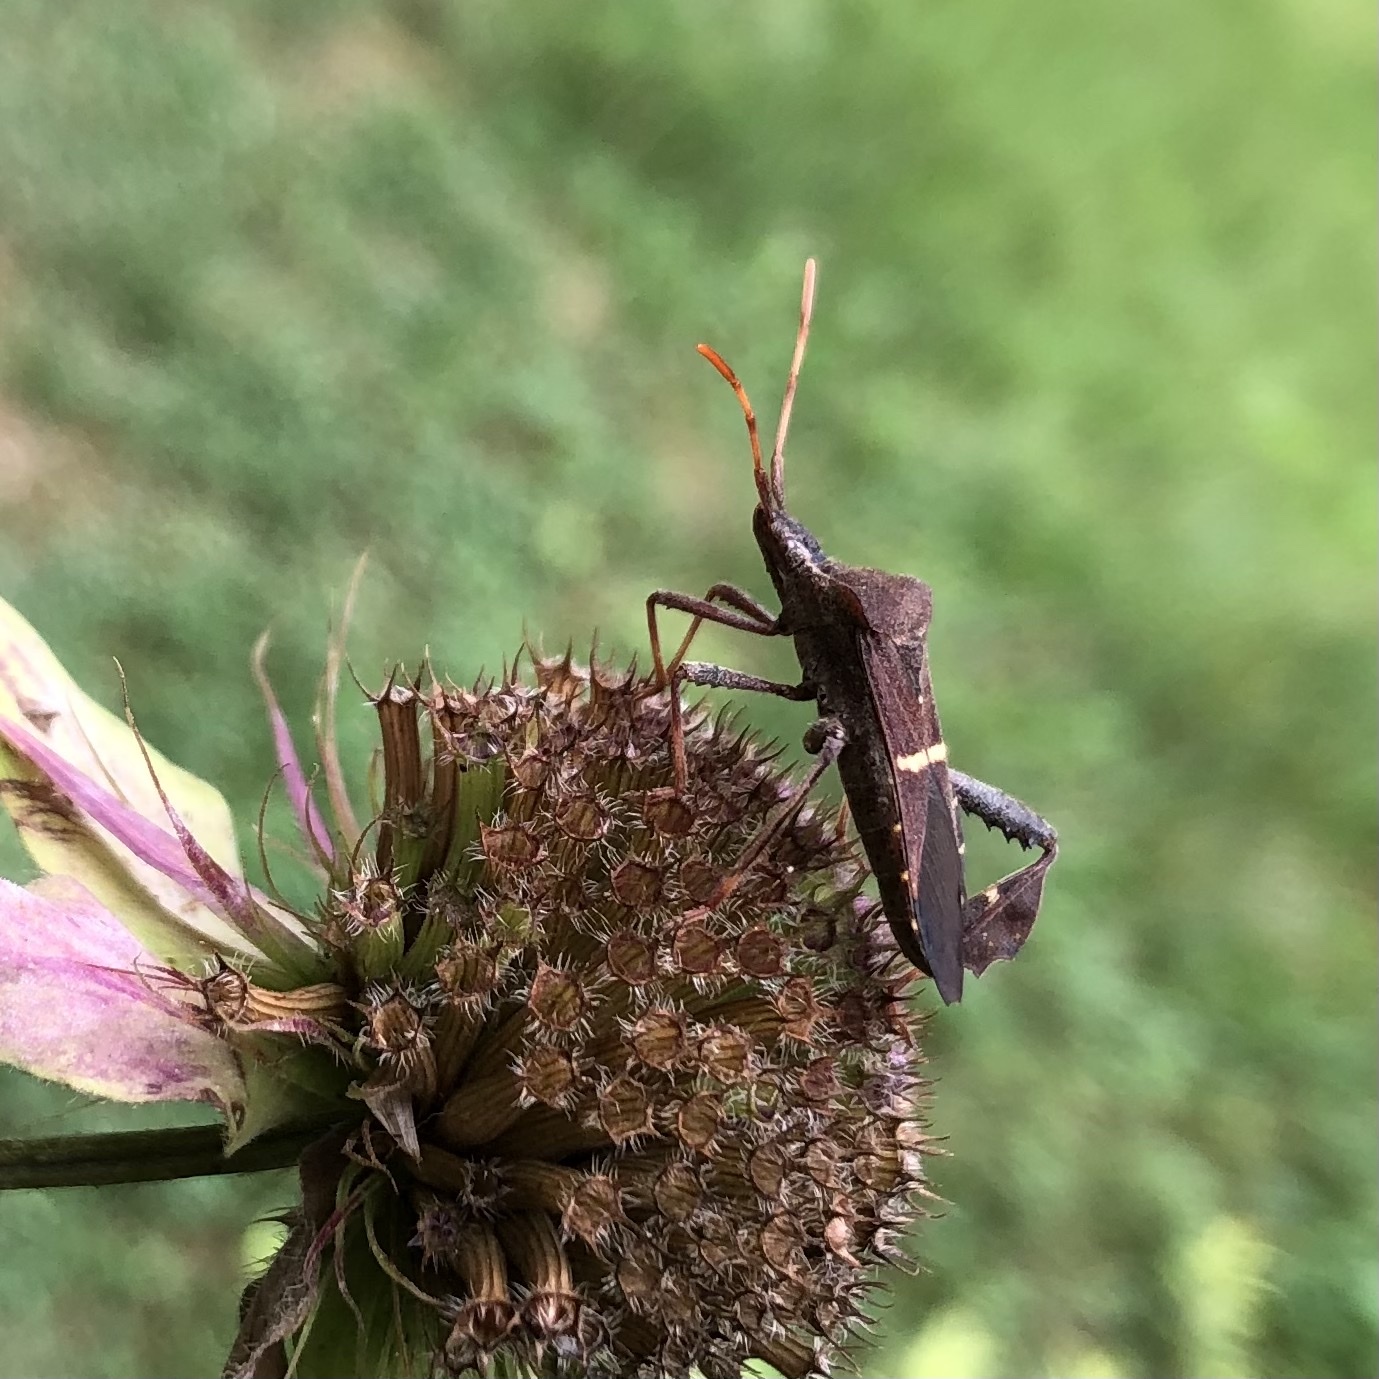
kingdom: Animalia
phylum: Arthropoda
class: Insecta
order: Hemiptera
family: Coreidae
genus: Leptoglossus
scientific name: Leptoglossus phyllopus
